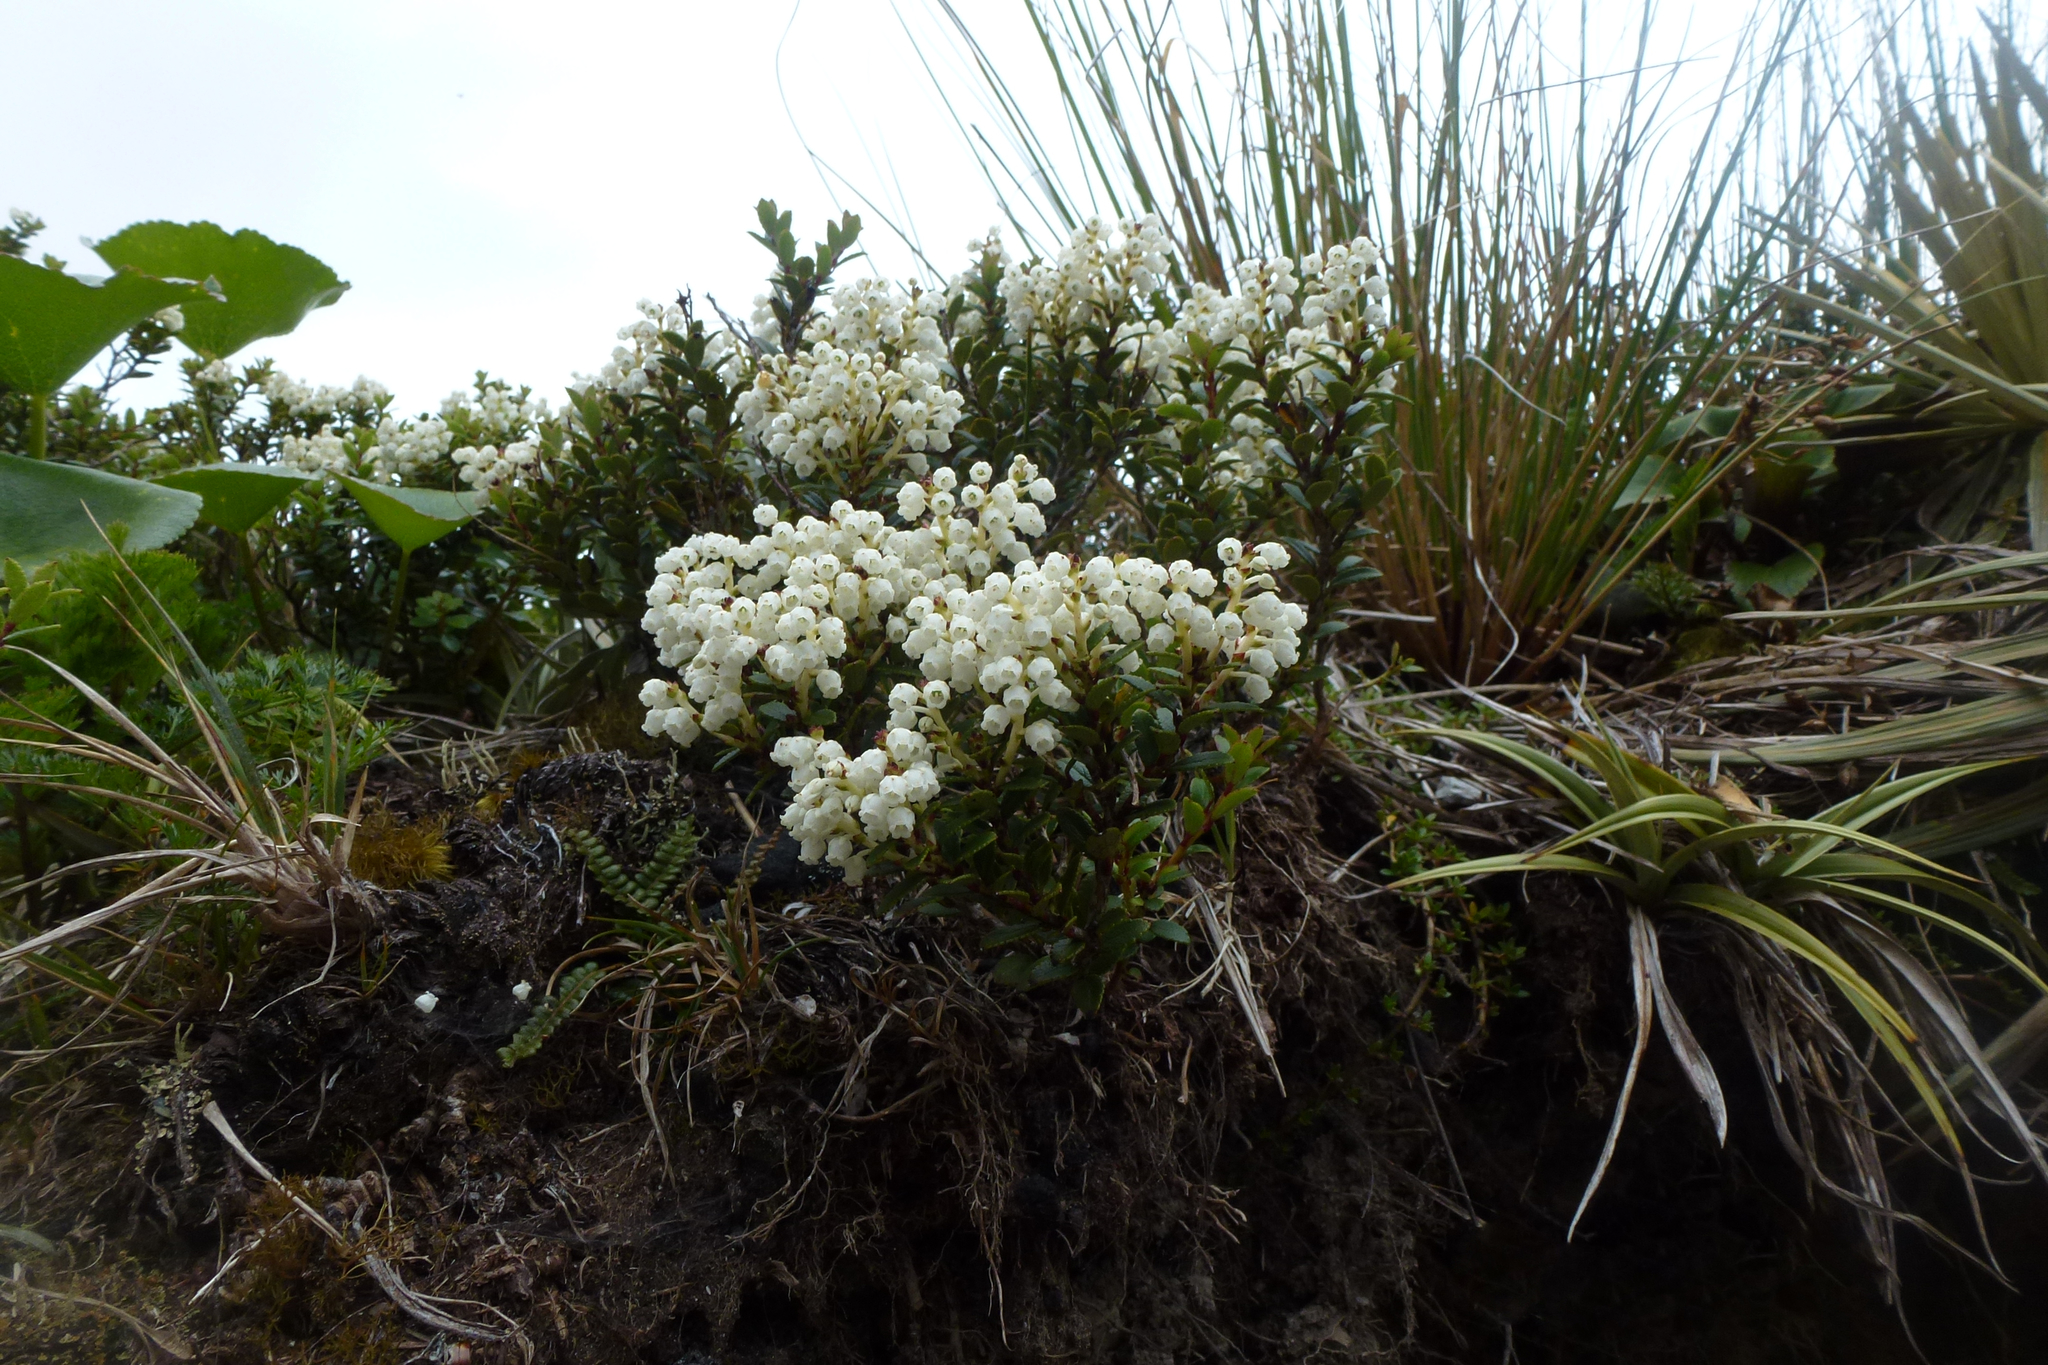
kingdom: Plantae
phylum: Tracheophyta
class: Magnoliopsida
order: Ericales
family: Ericaceae
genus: Gaultheria
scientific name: Gaultheria rupestris
